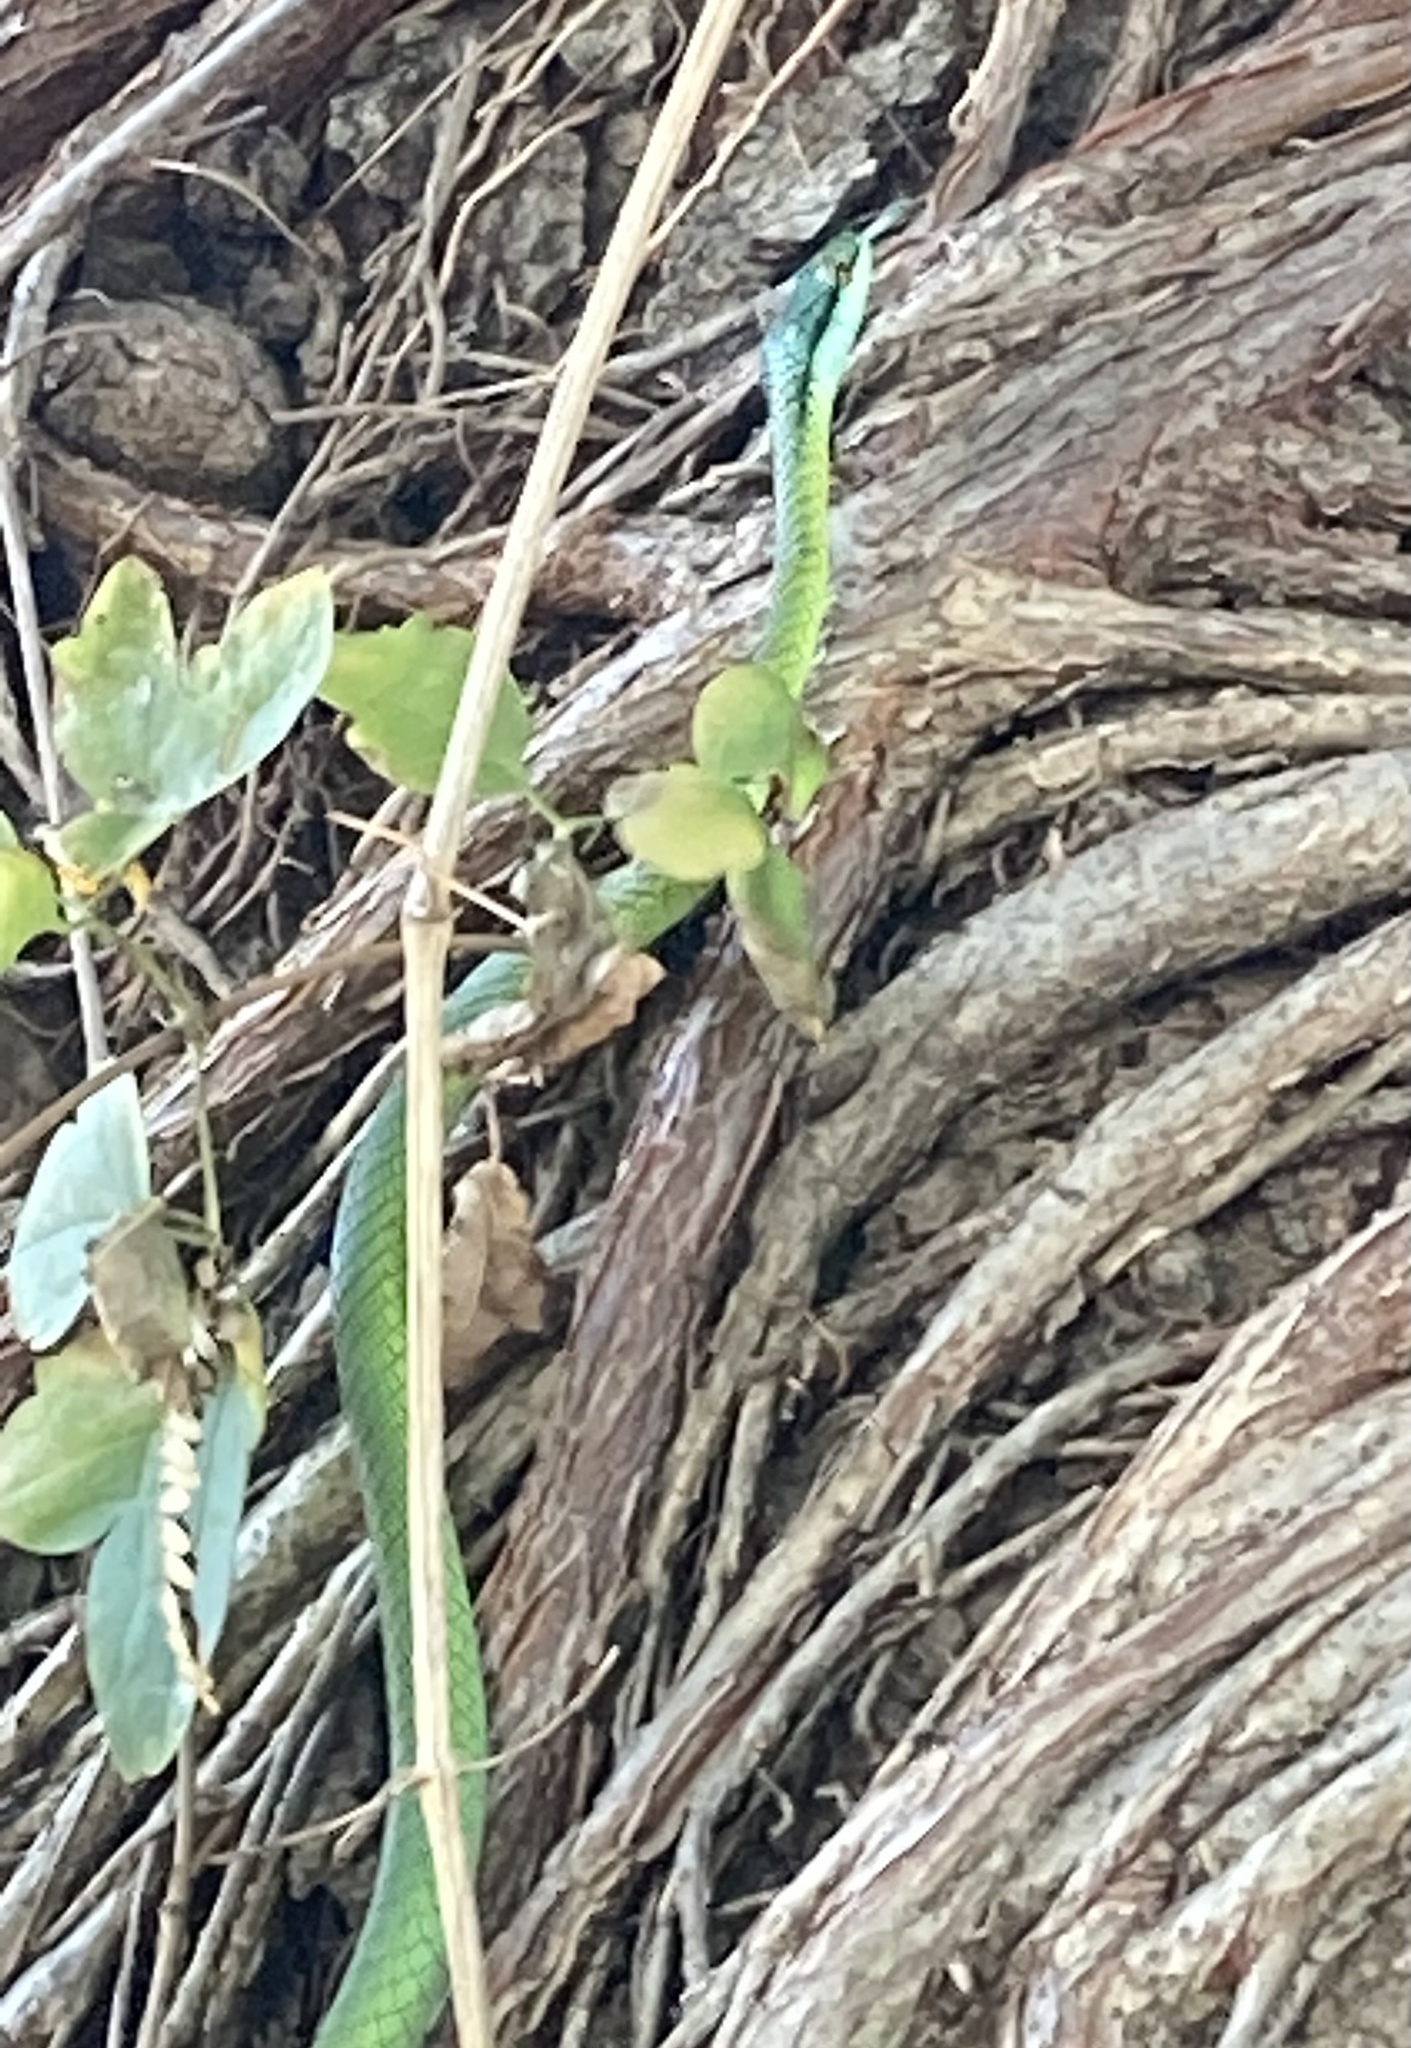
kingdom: Animalia
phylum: Chordata
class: Squamata
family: Colubridae
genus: Leptophis
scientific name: Leptophis ahaetulla
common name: Parrot snake
